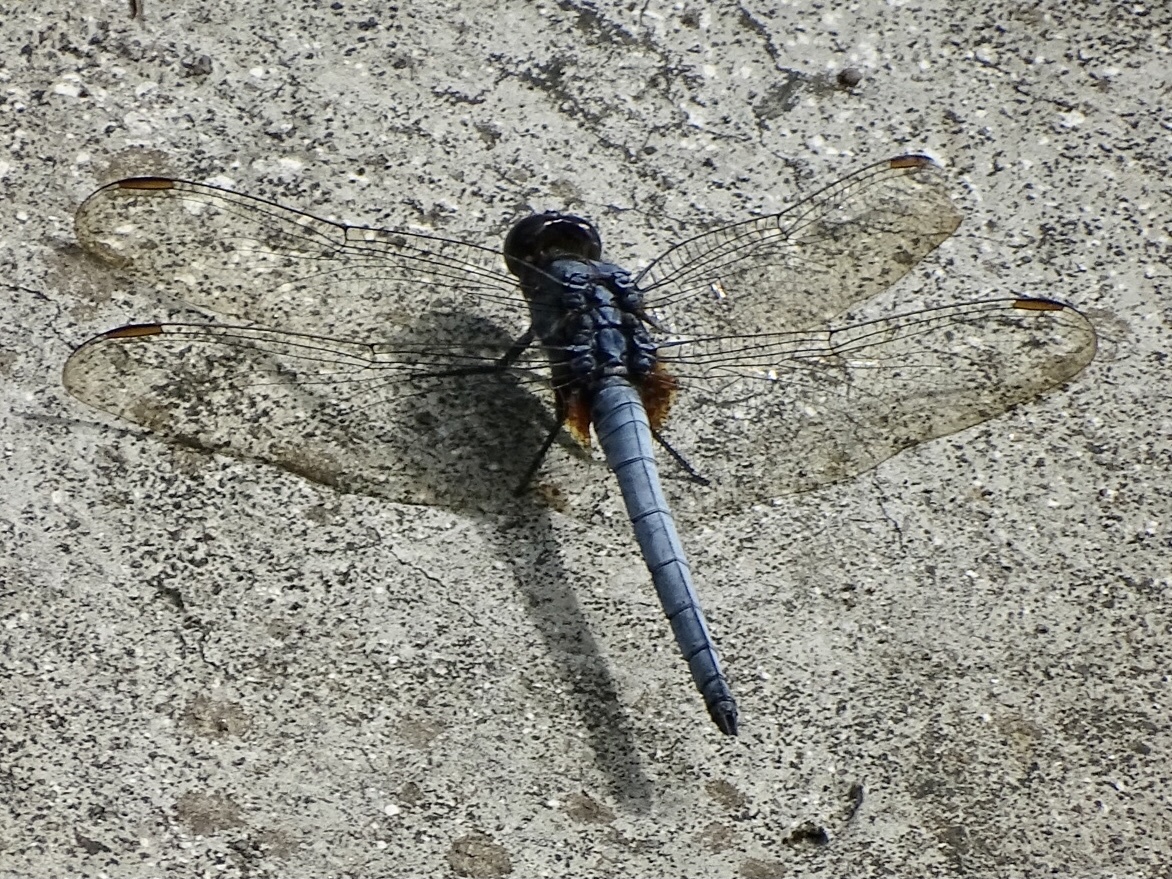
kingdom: Animalia
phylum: Arthropoda
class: Insecta
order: Odonata
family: Libellulidae
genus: Orthetrum
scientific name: Orthetrum glaucum
